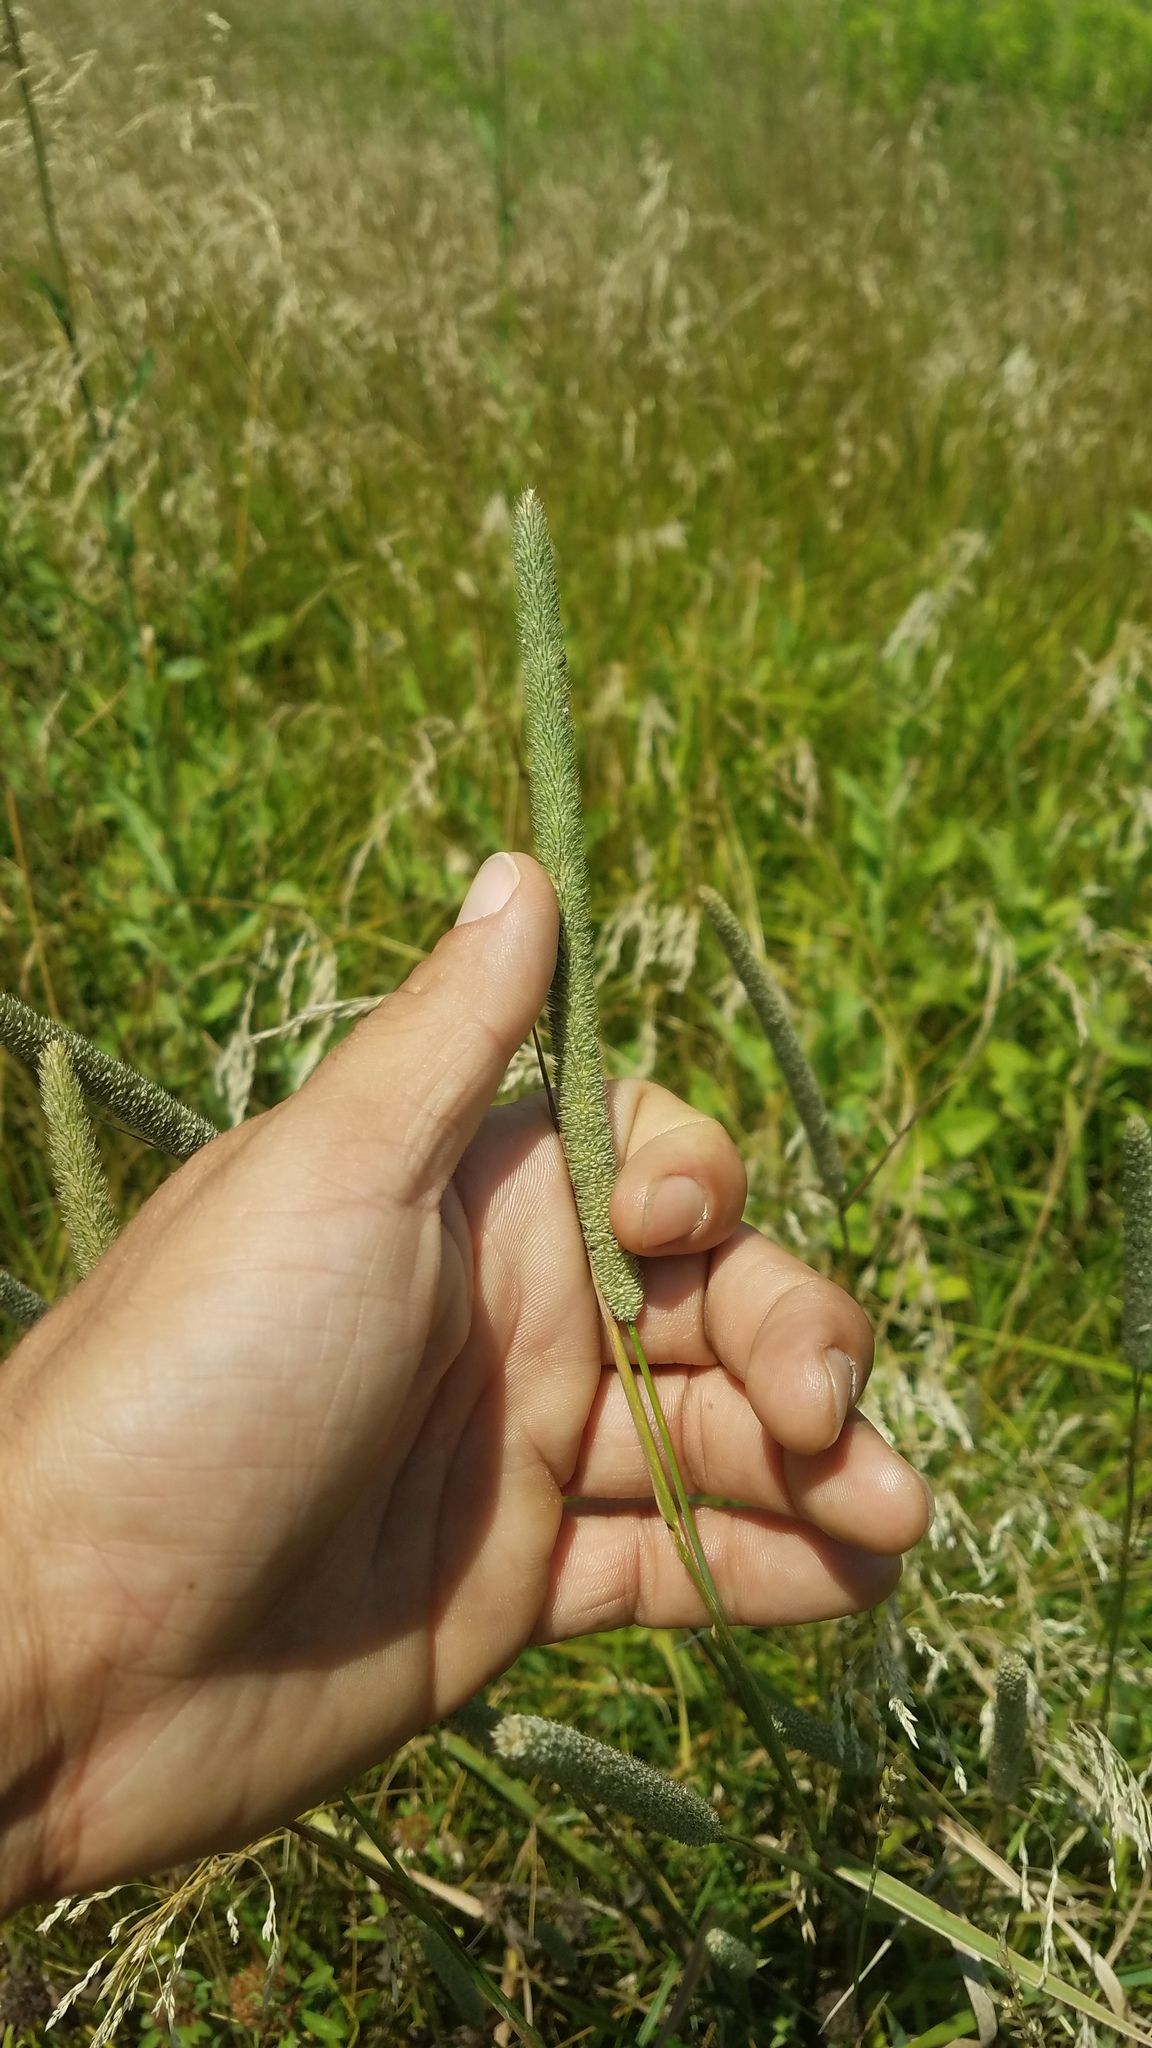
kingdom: Plantae
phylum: Tracheophyta
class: Liliopsida
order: Poales
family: Poaceae
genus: Phleum
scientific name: Phleum pratense
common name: Timothy grass
